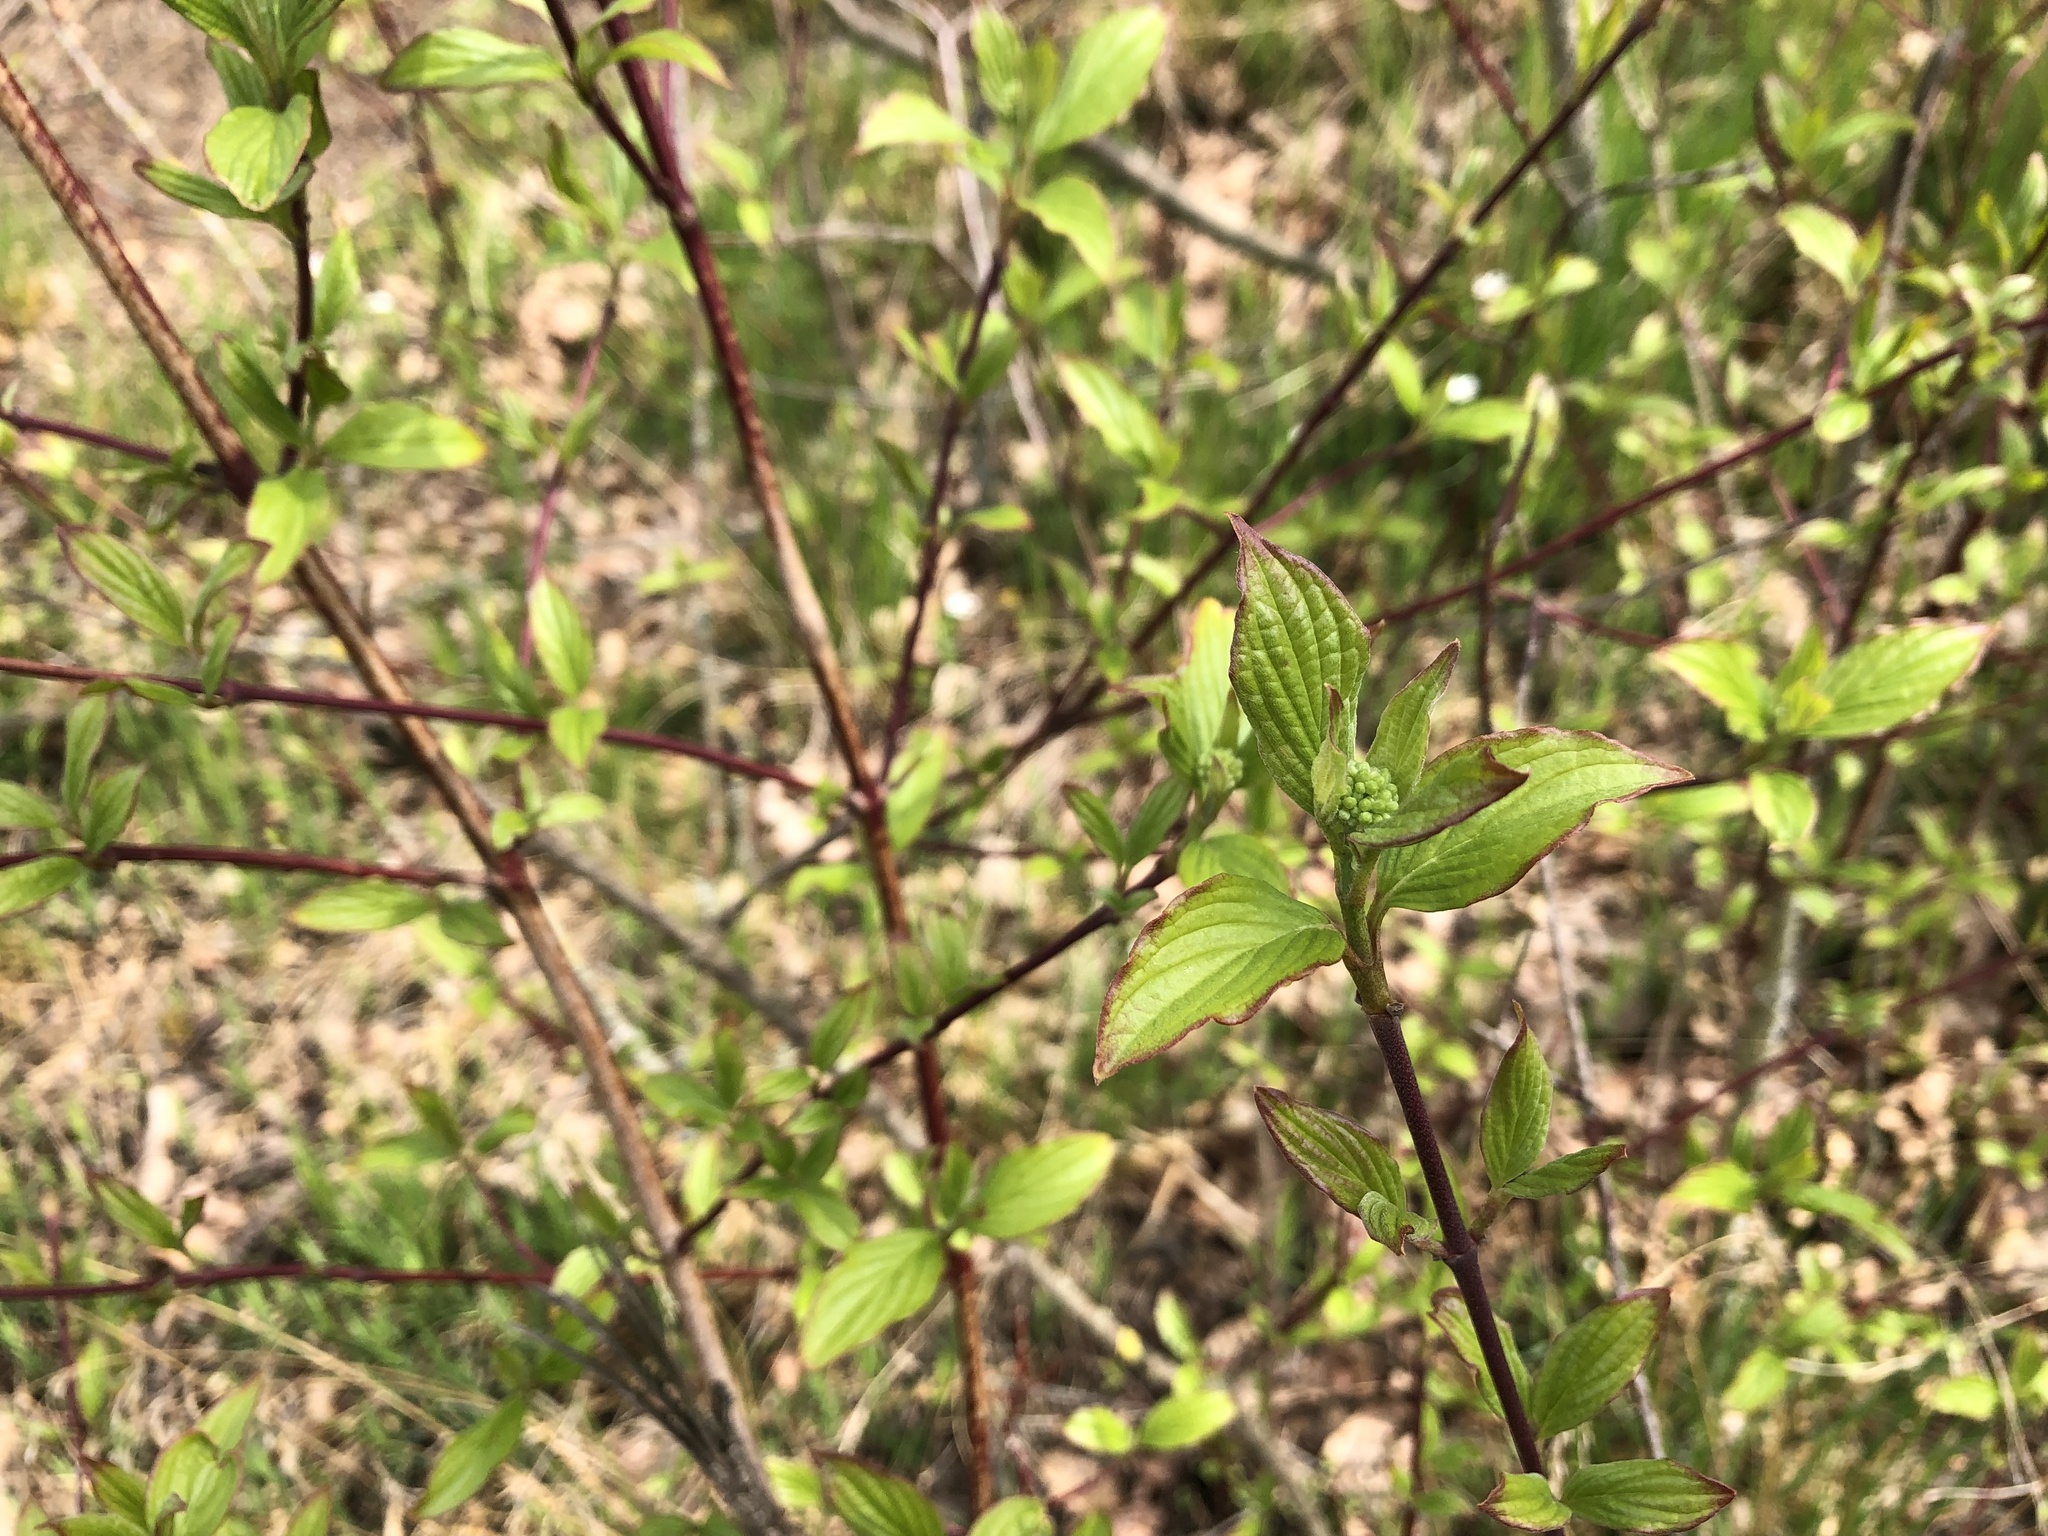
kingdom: Plantae
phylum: Tracheophyta
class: Magnoliopsida
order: Cornales
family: Cornaceae
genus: Cornus
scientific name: Cornus sanguinea
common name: Dogwood
